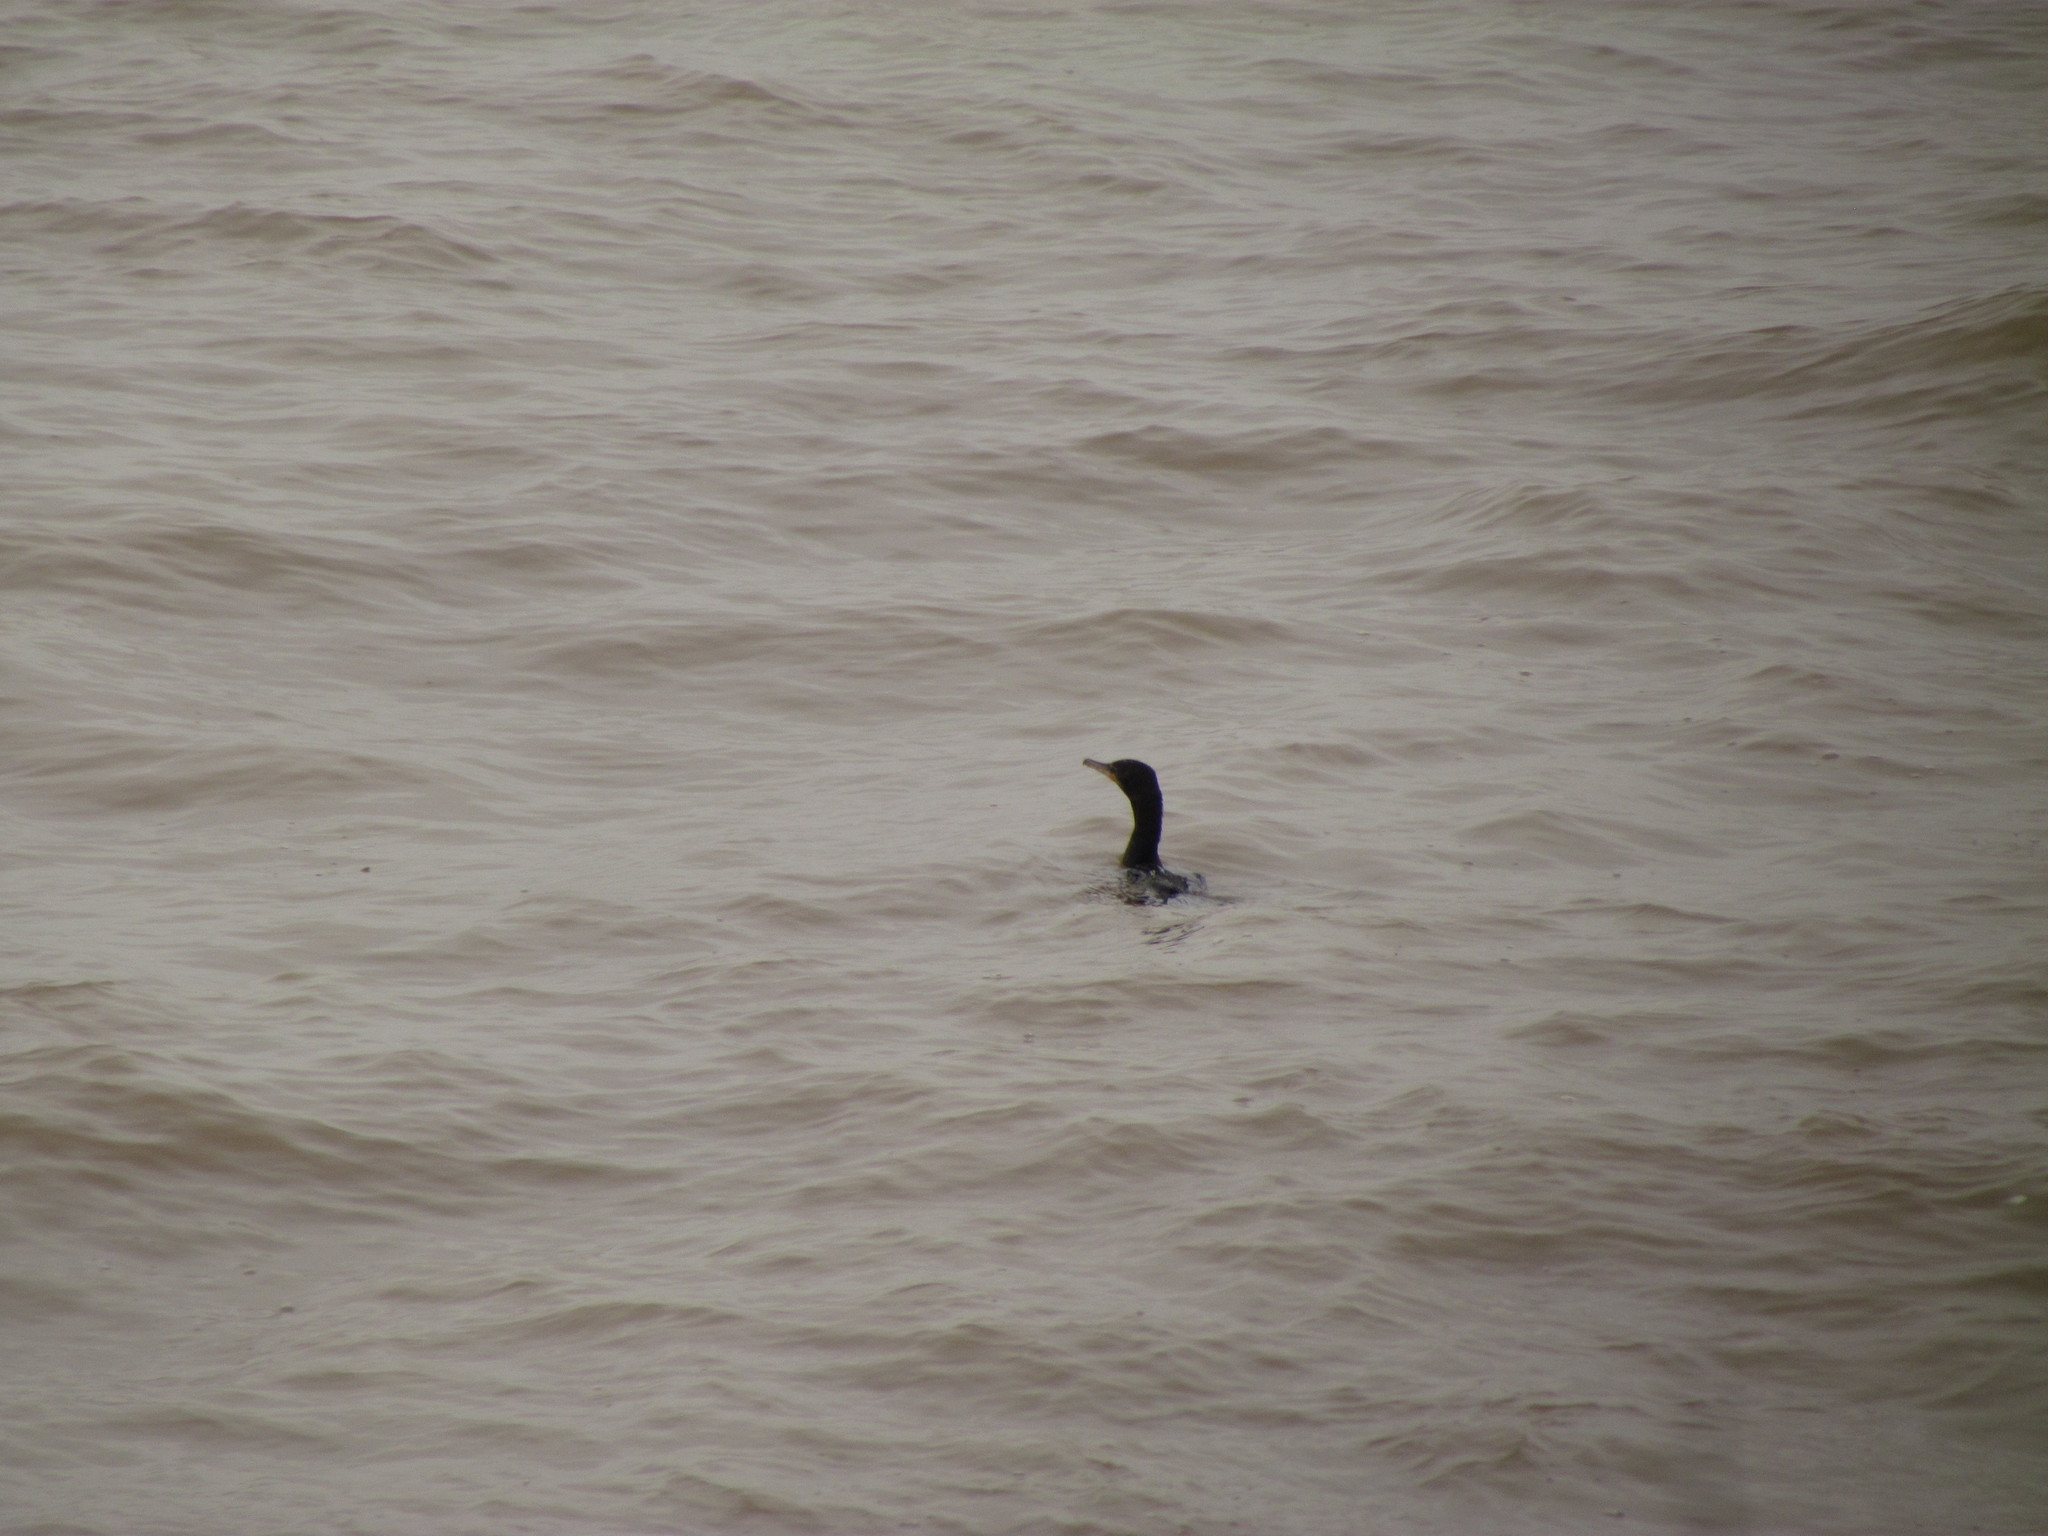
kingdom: Animalia
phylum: Chordata
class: Aves
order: Suliformes
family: Phalacrocoracidae
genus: Phalacrocorax
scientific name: Phalacrocorax brasilianus
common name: Neotropic cormorant
